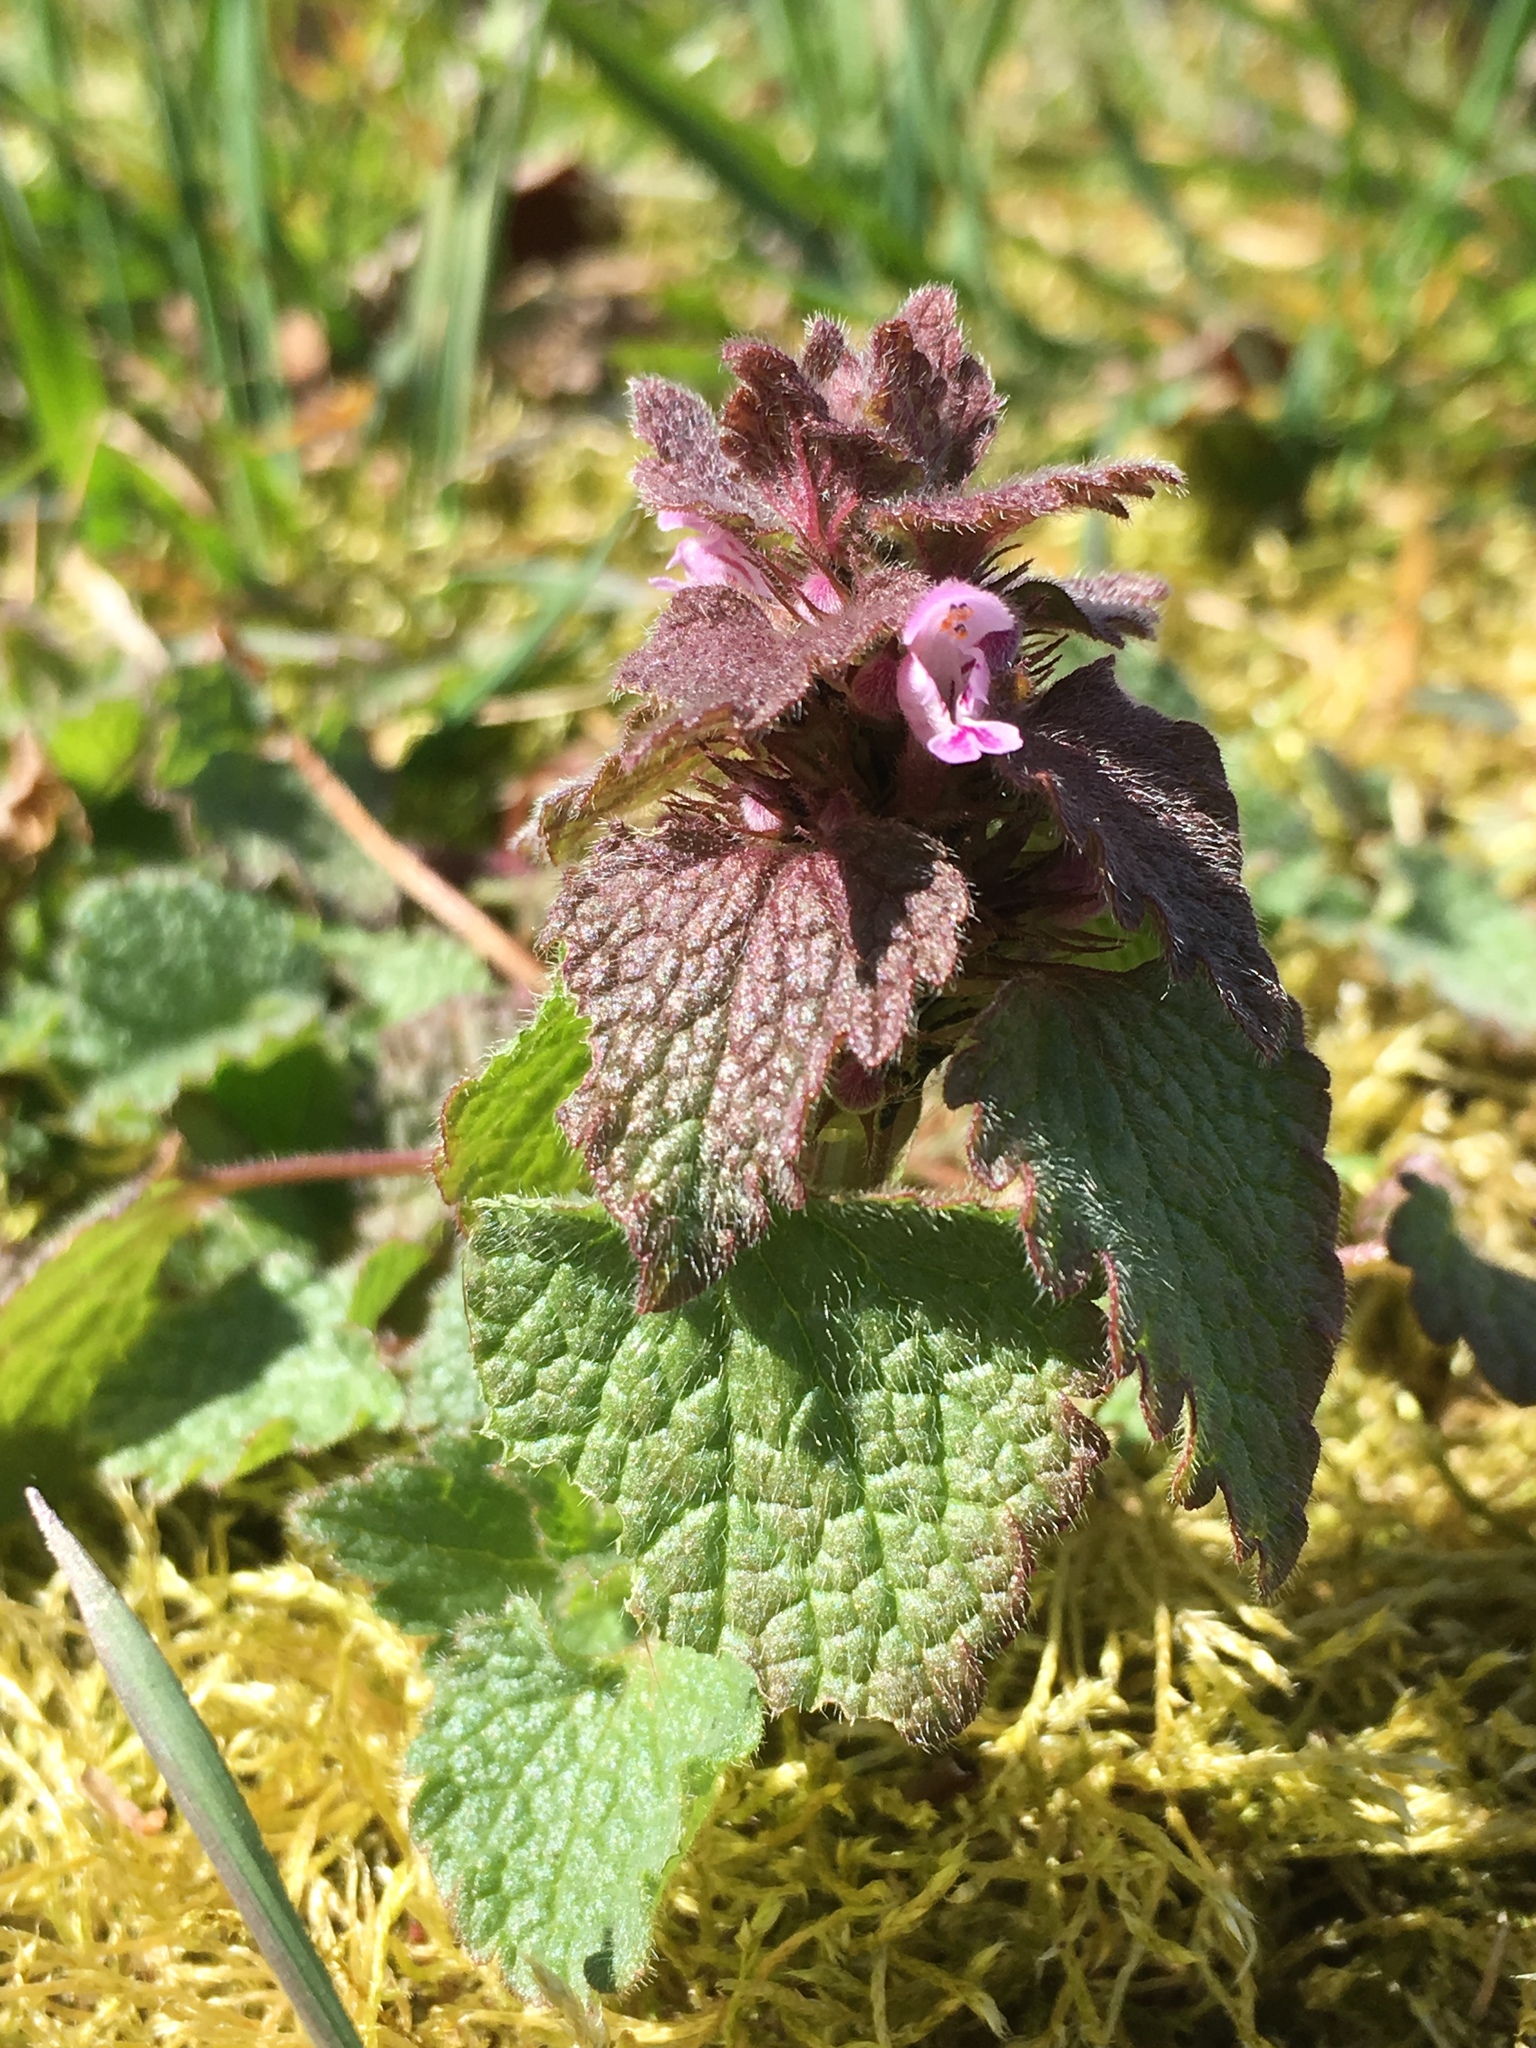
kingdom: Plantae
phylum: Tracheophyta
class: Magnoliopsida
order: Lamiales
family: Lamiaceae
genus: Lamium
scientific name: Lamium purpureum
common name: Red dead-nettle
